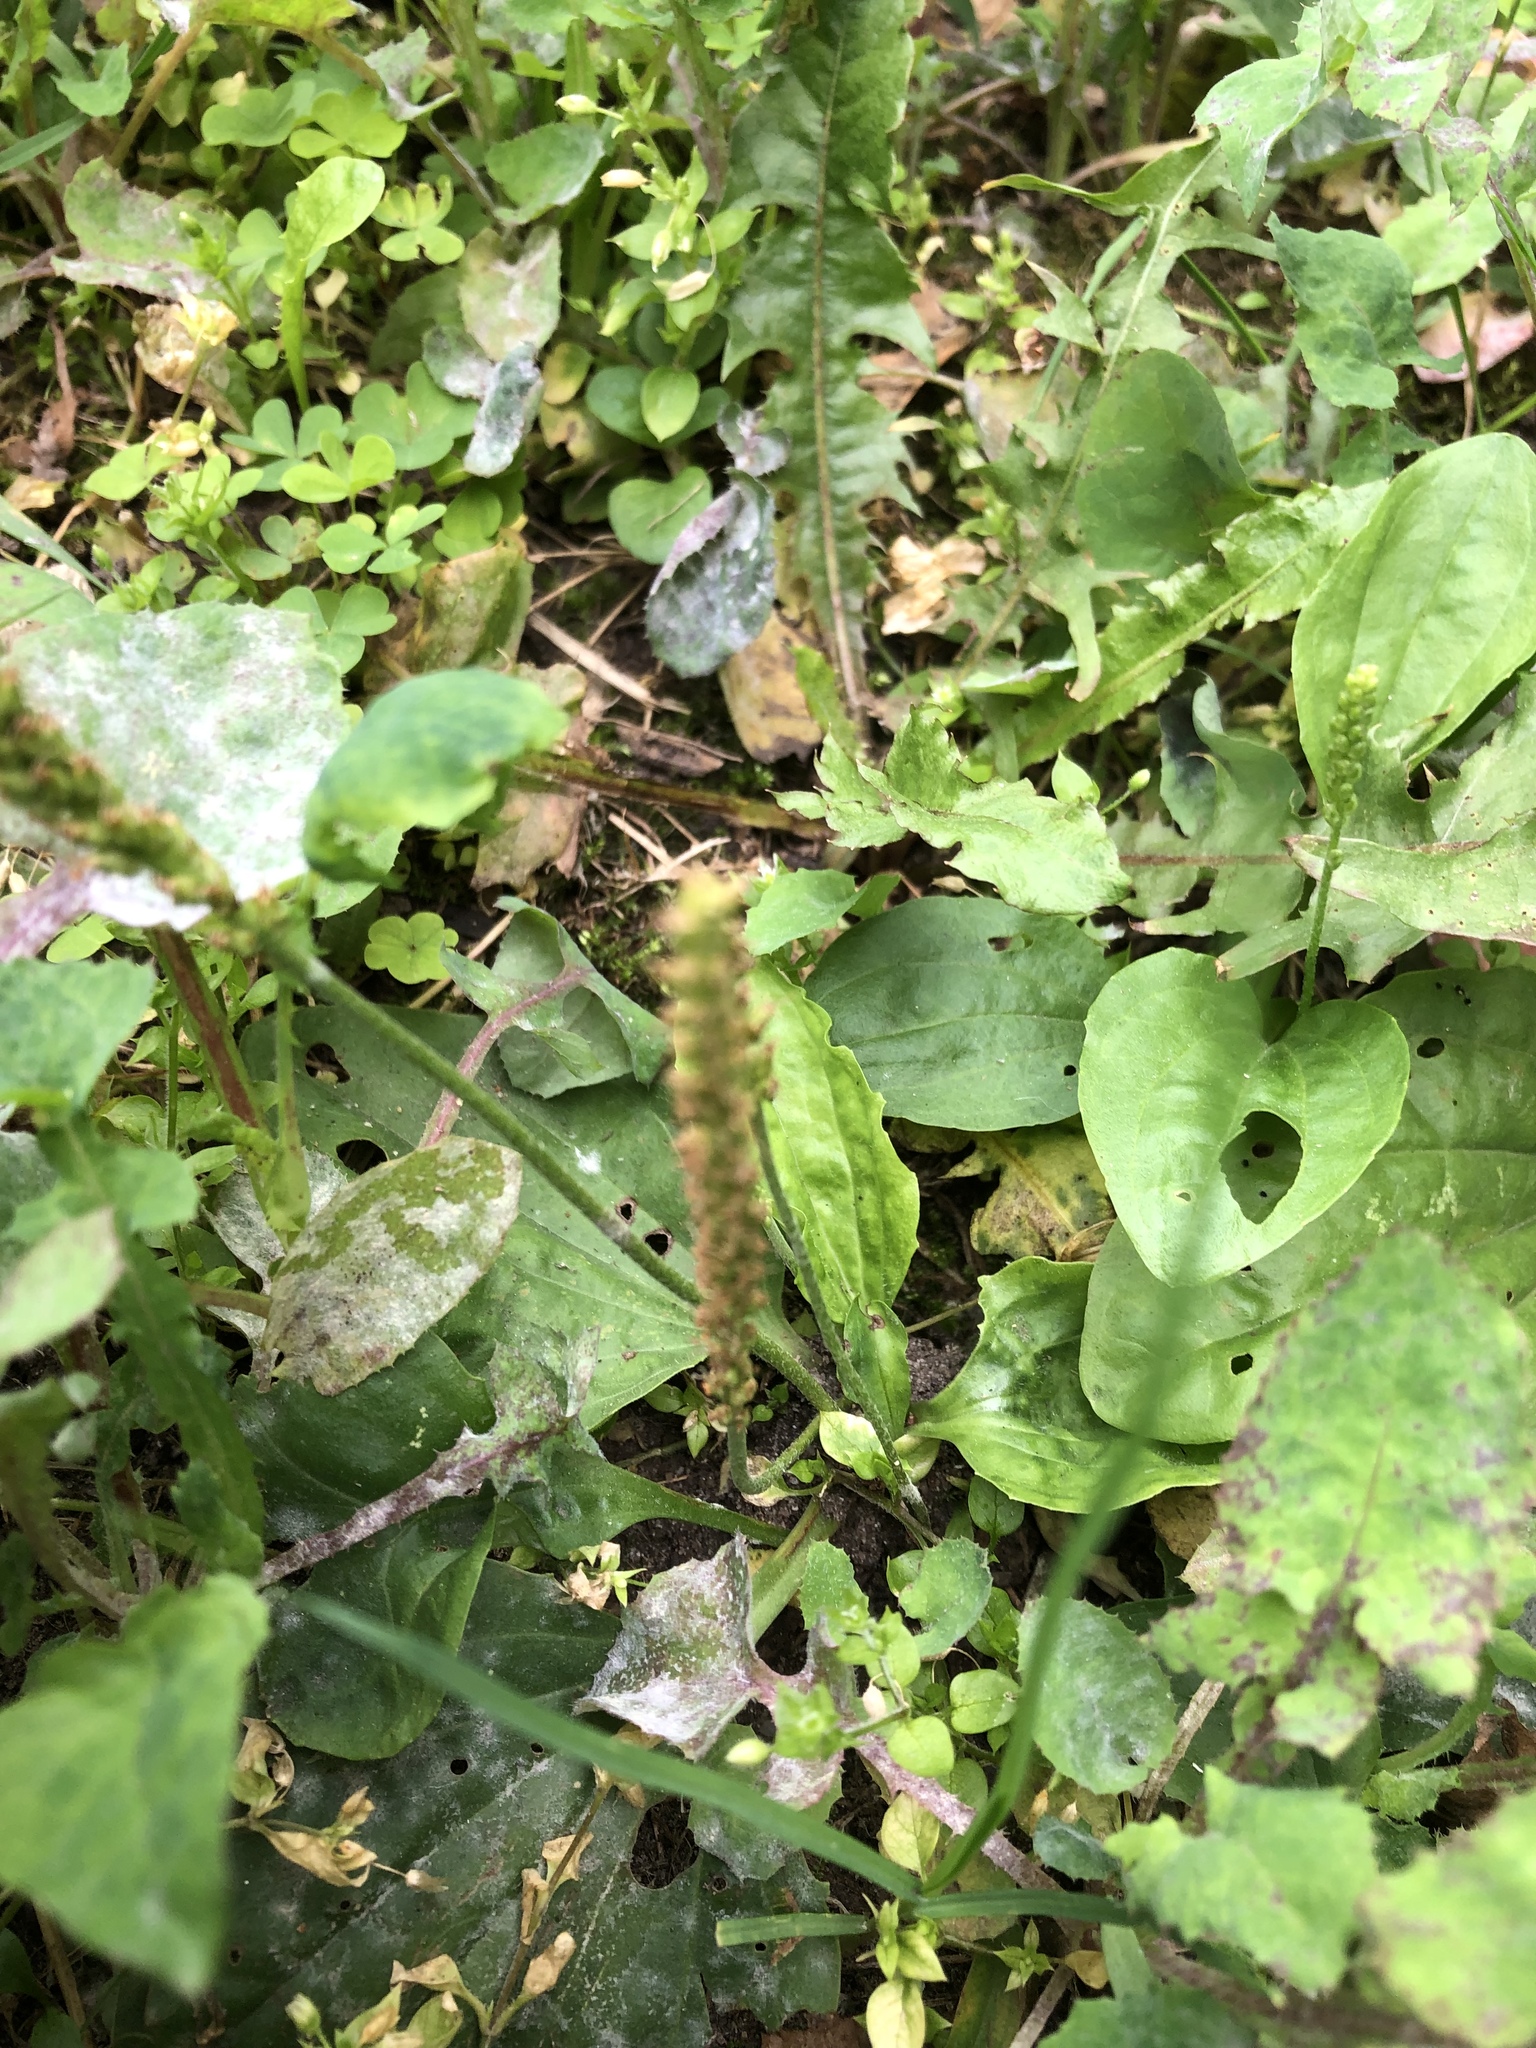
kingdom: Plantae
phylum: Tracheophyta
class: Magnoliopsida
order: Lamiales
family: Plantaginaceae
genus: Plantago
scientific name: Plantago major
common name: Common plantain
